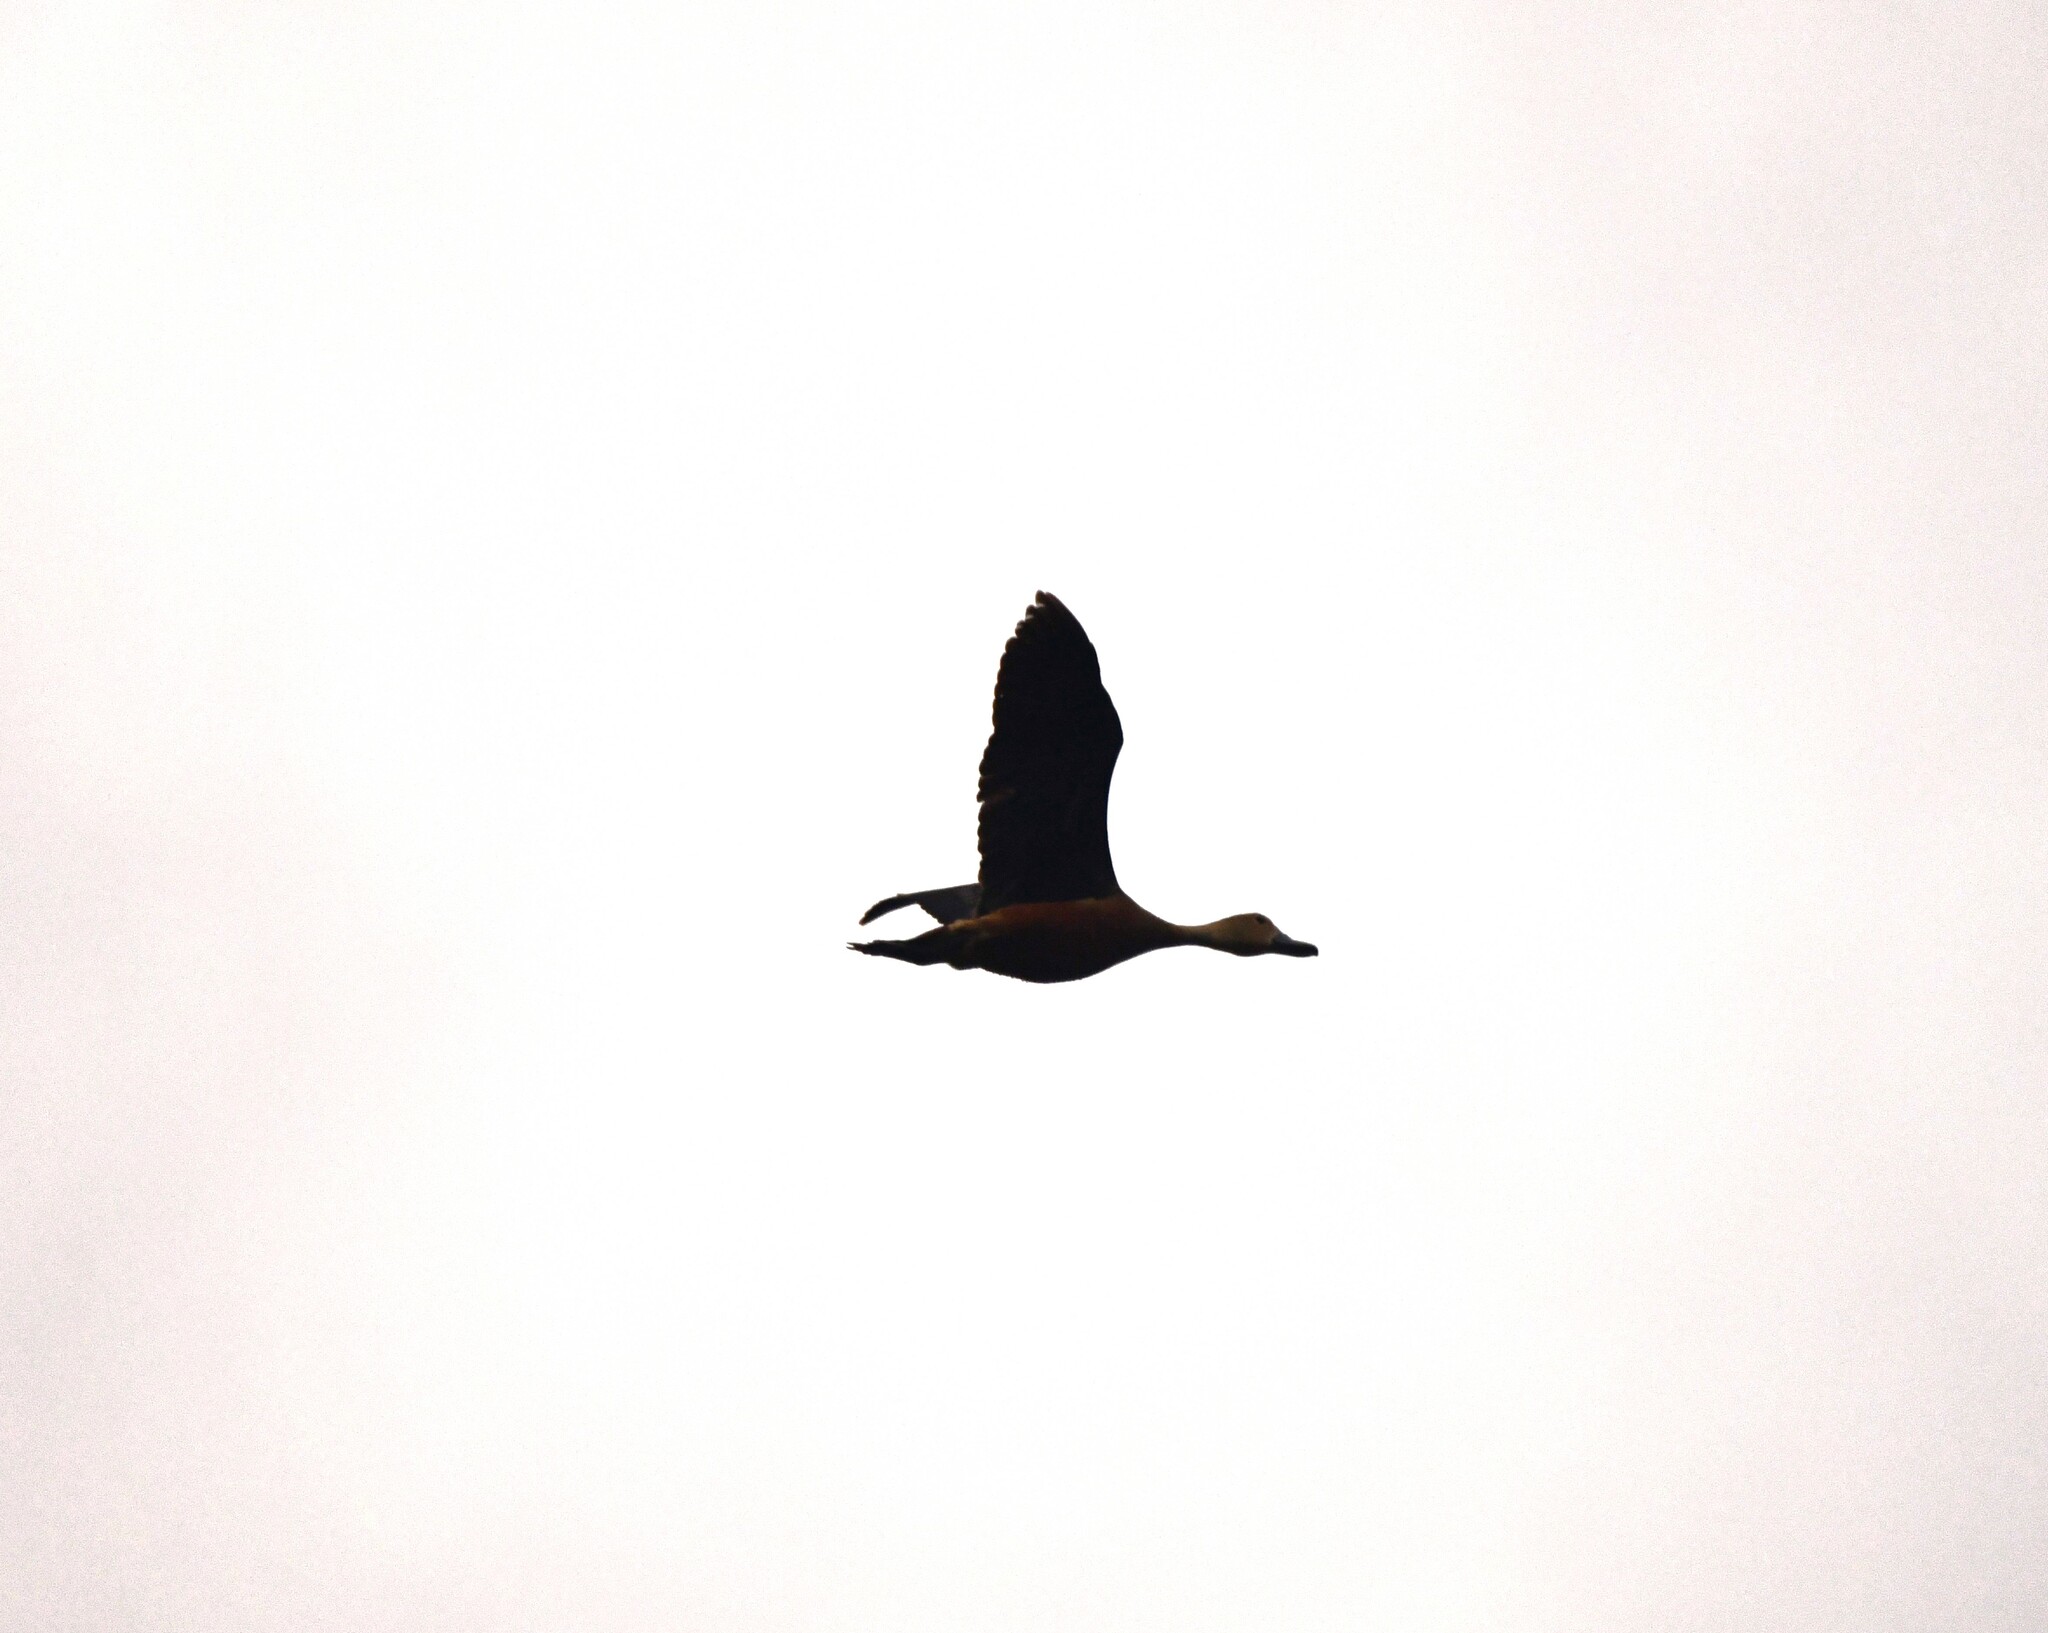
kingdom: Animalia
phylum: Chordata
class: Aves
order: Anseriformes
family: Anatidae
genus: Dendrocygna
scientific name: Dendrocygna javanica
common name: Lesser whistling-duck
